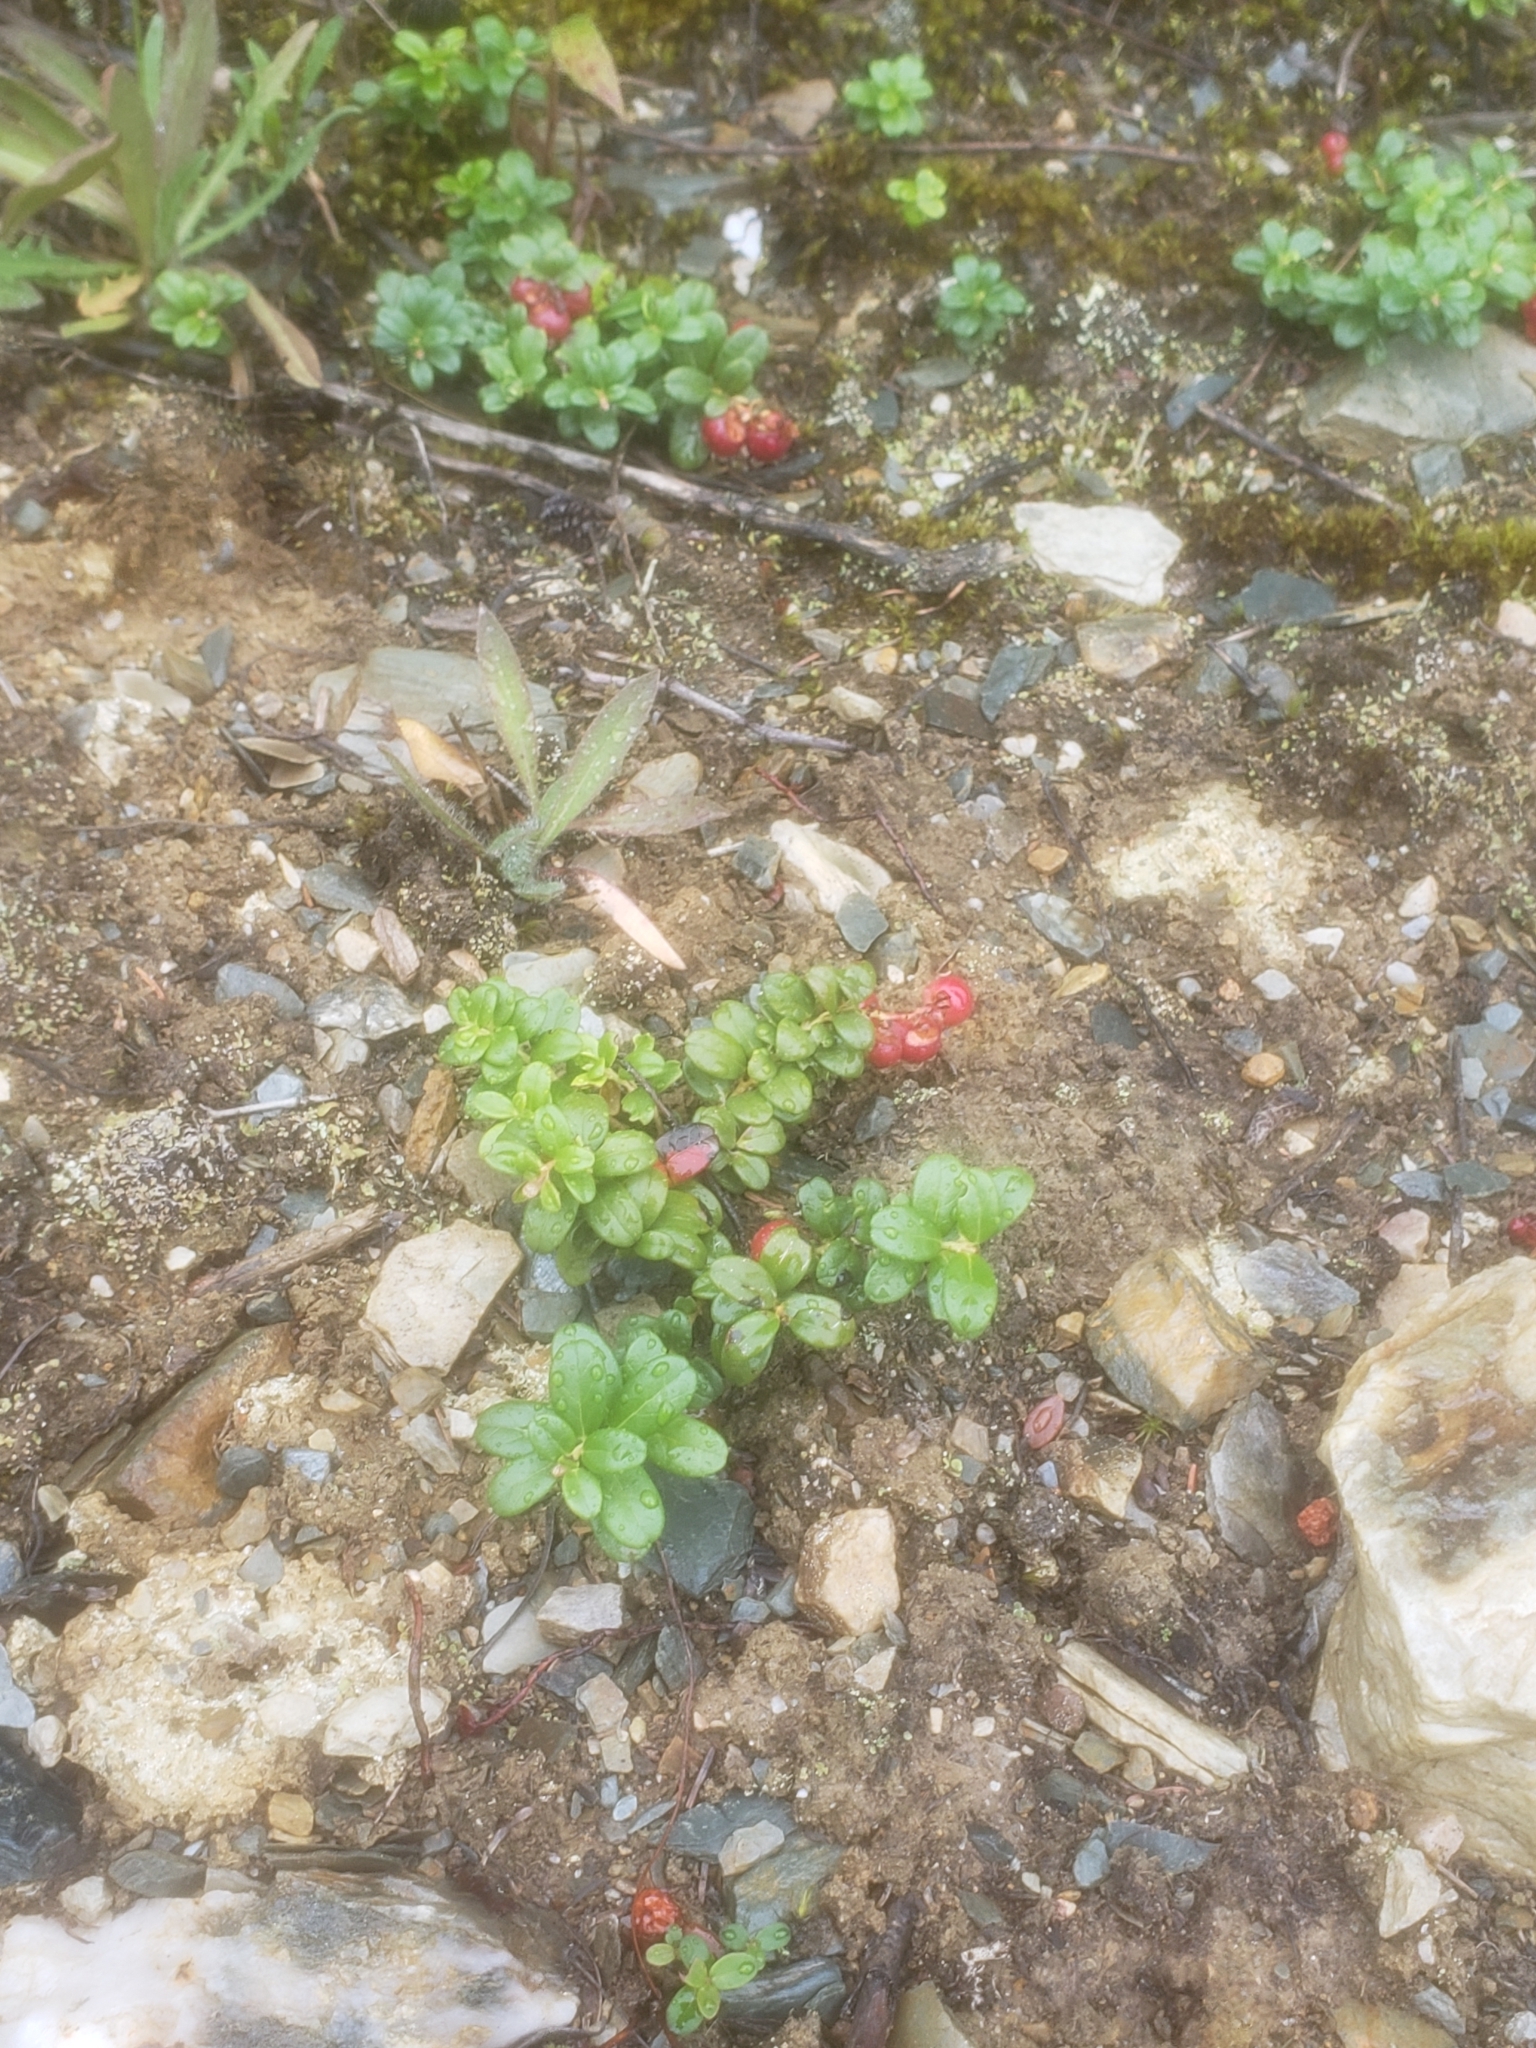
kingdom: Plantae
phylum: Tracheophyta
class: Magnoliopsida
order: Ericales
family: Ericaceae
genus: Vaccinium
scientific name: Vaccinium vitis-idaea
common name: Cowberry
